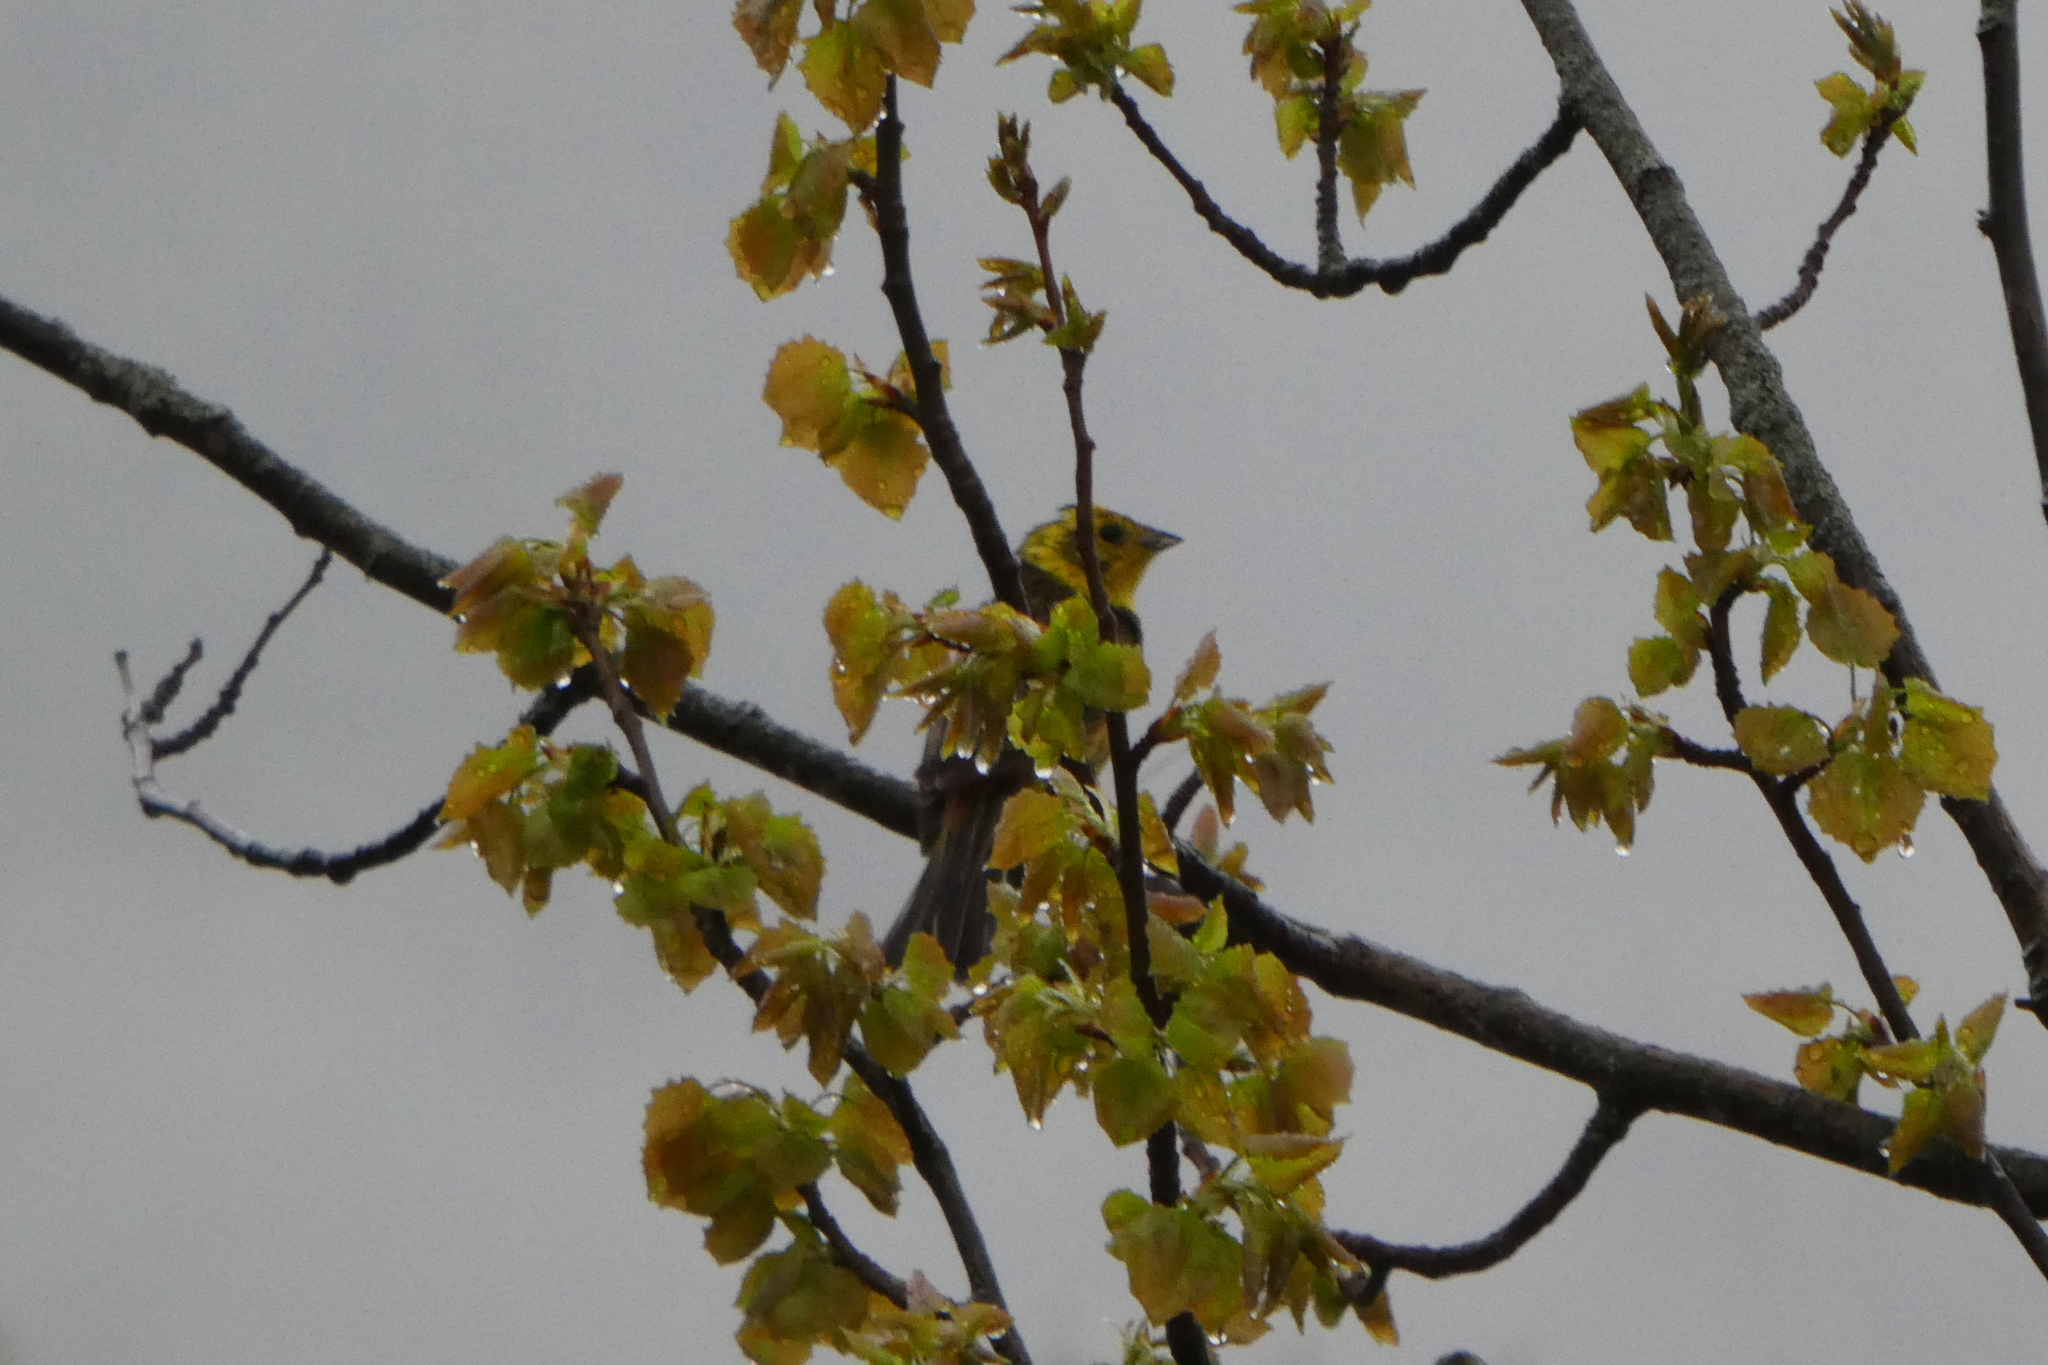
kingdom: Animalia
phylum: Chordata
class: Aves
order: Passeriformes
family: Emberizidae
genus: Emberiza
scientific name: Emberiza citrinella
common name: Yellowhammer
